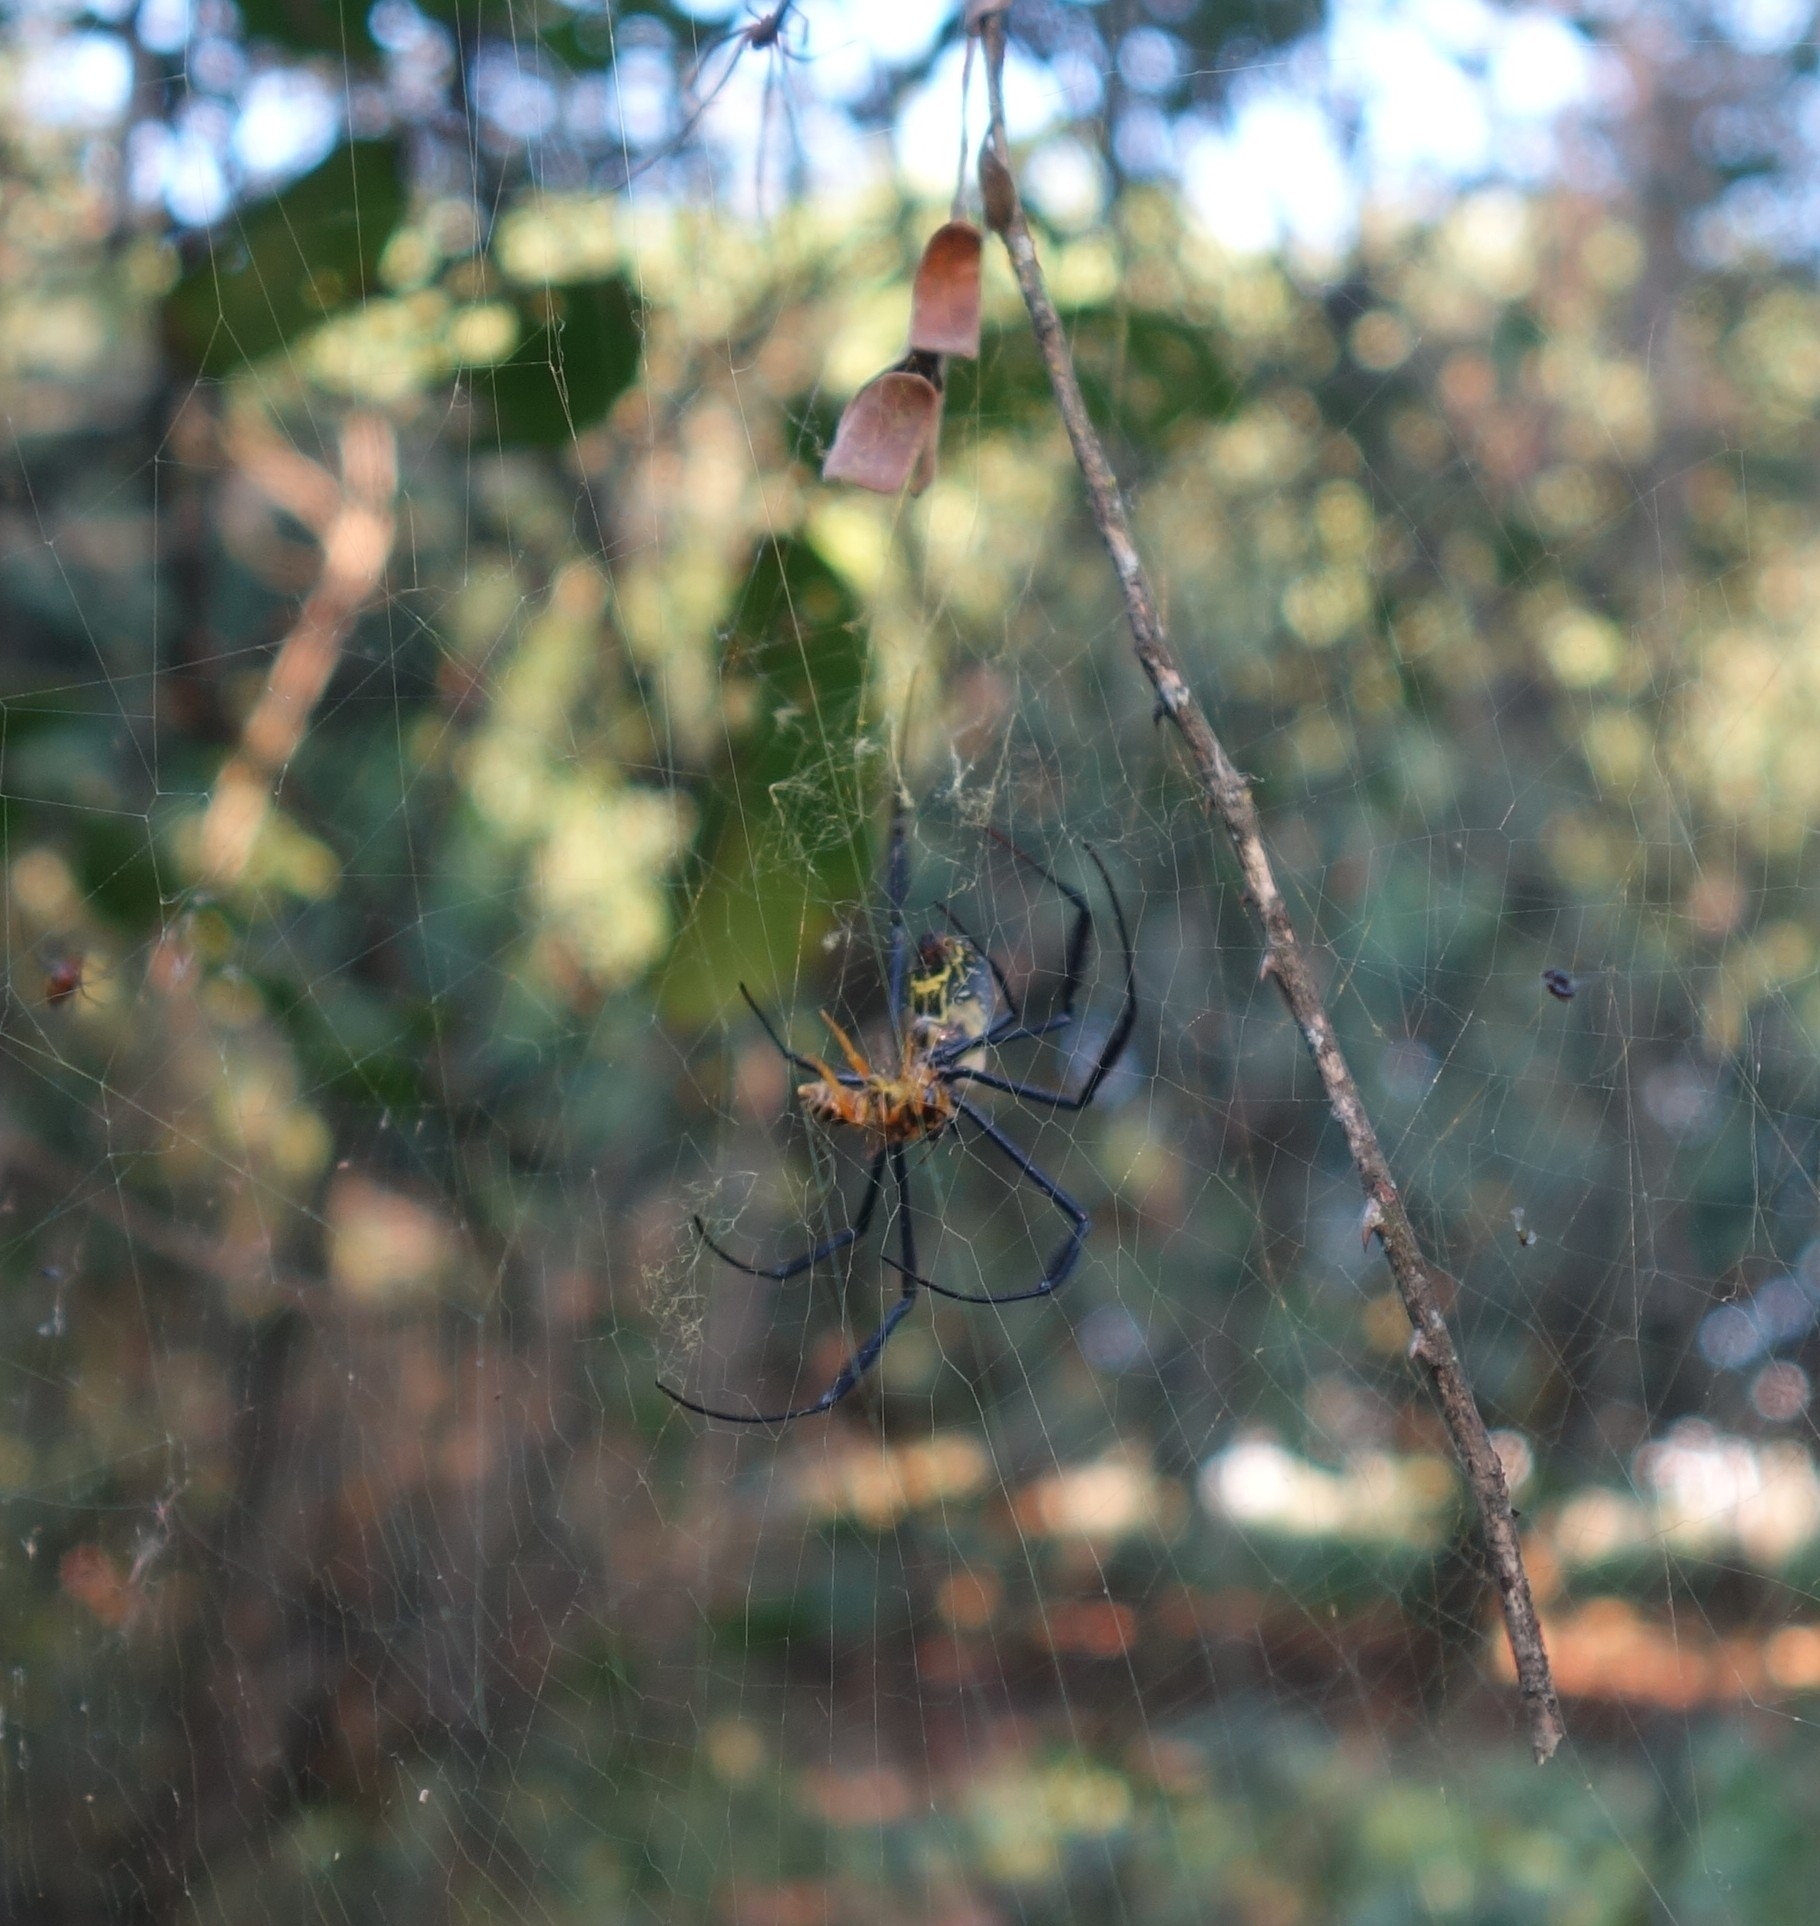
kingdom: Animalia
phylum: Arthropoda
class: Arachnida
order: Araneae
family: Araneidae
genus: Trichonephila
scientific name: Trichonephila fenestrata
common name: Hairy golden orb weaver
